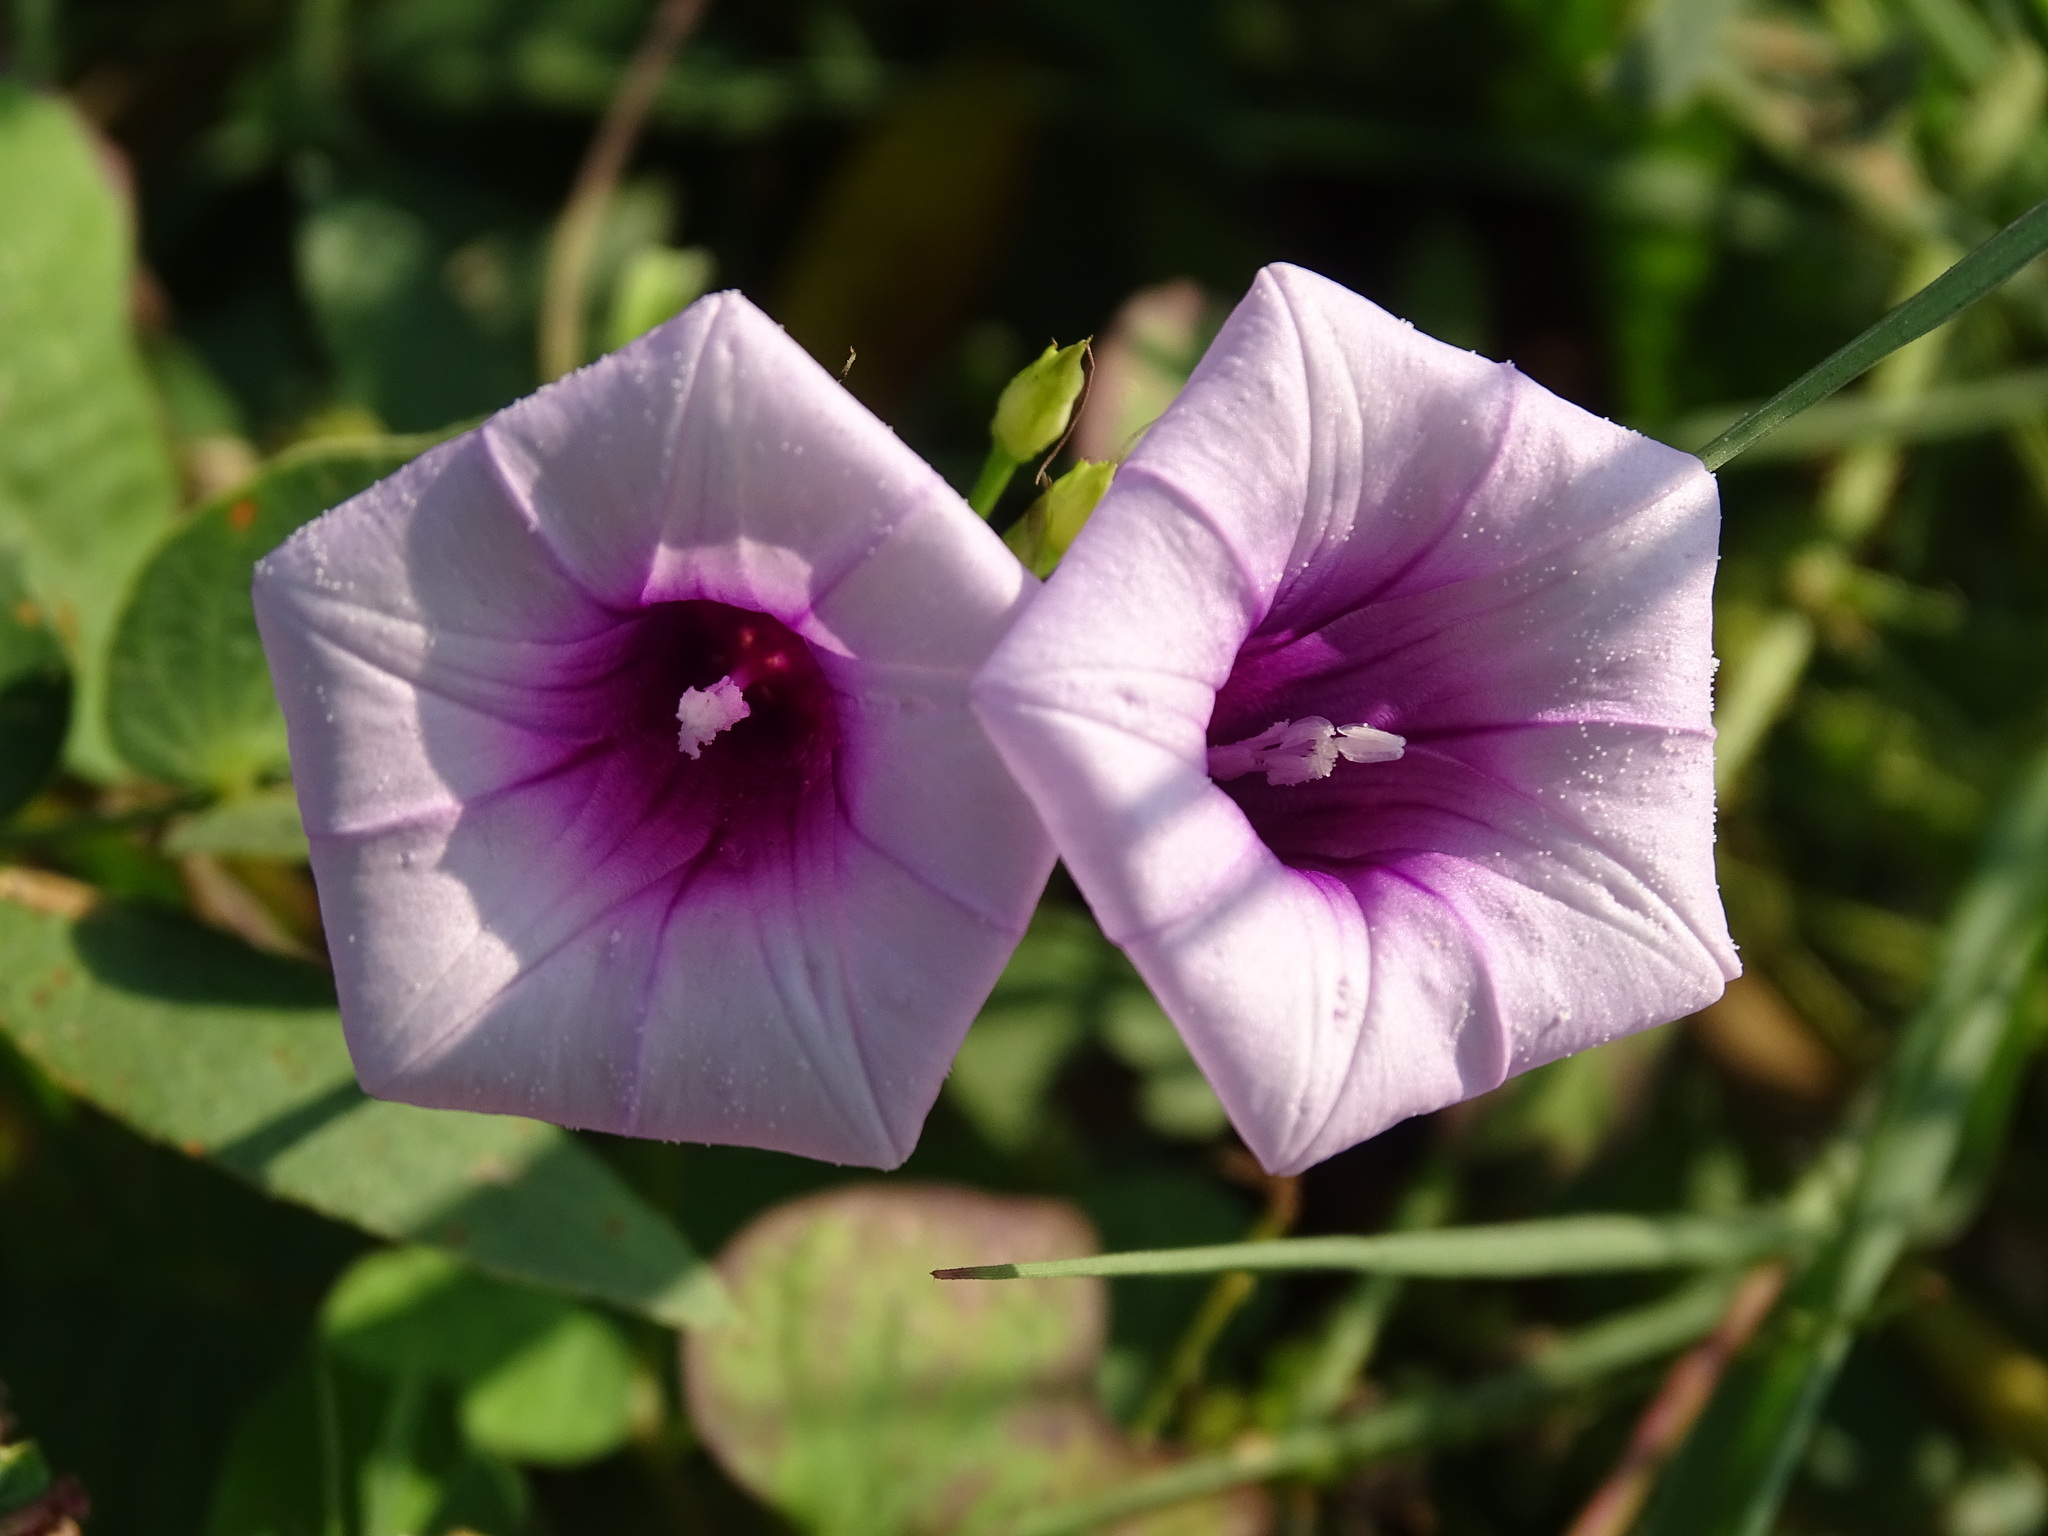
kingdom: Plantae
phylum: Tracheophyta
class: Magnoliopsida
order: Solanales
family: Convolvulaceae
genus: Ipomoea
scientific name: Ipomoea trifida
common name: Cotton morningglory
